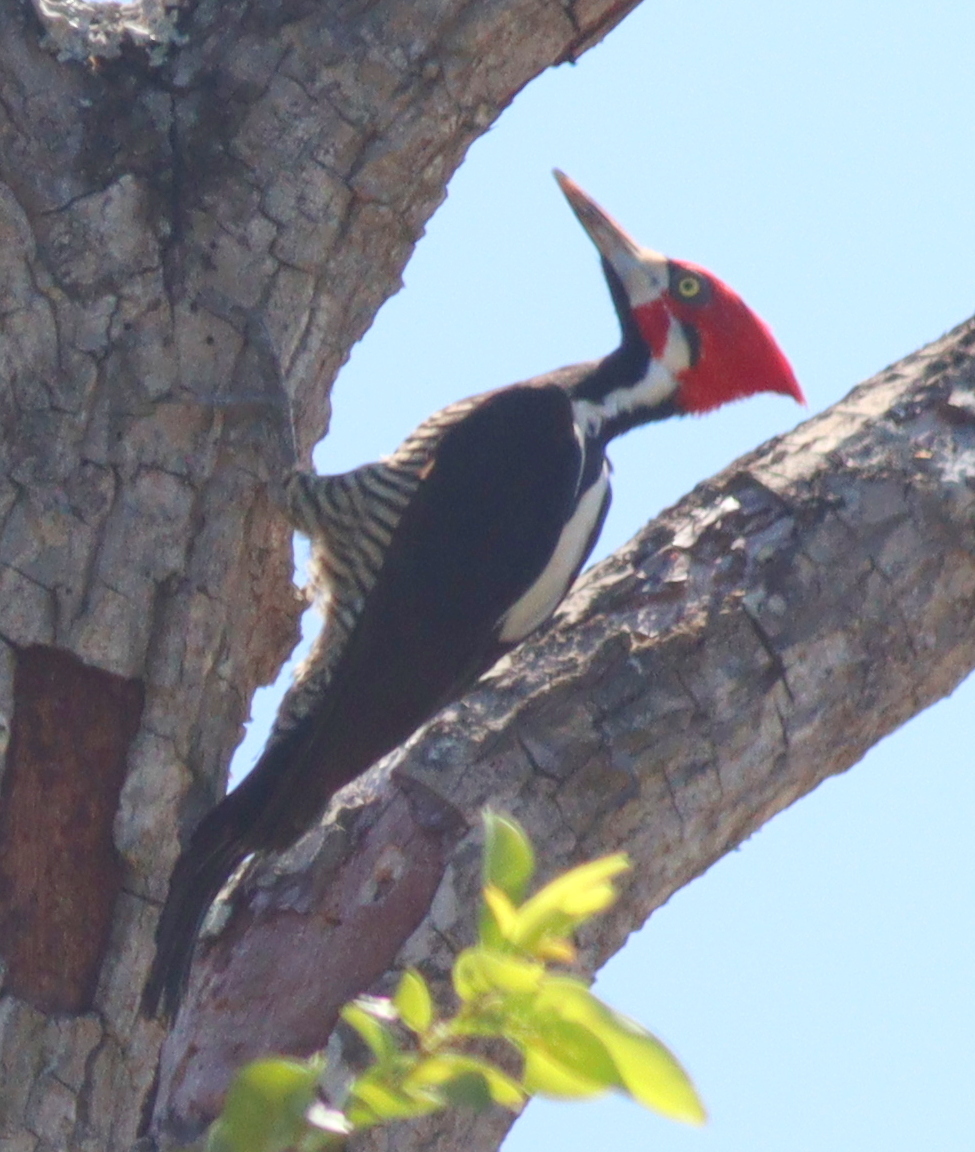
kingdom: Animalia
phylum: Chordata
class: Aves
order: Piciformes
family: Picidae
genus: Campephilus
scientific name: Campephilus melanoleucos
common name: Crimson-crested woodpecker
